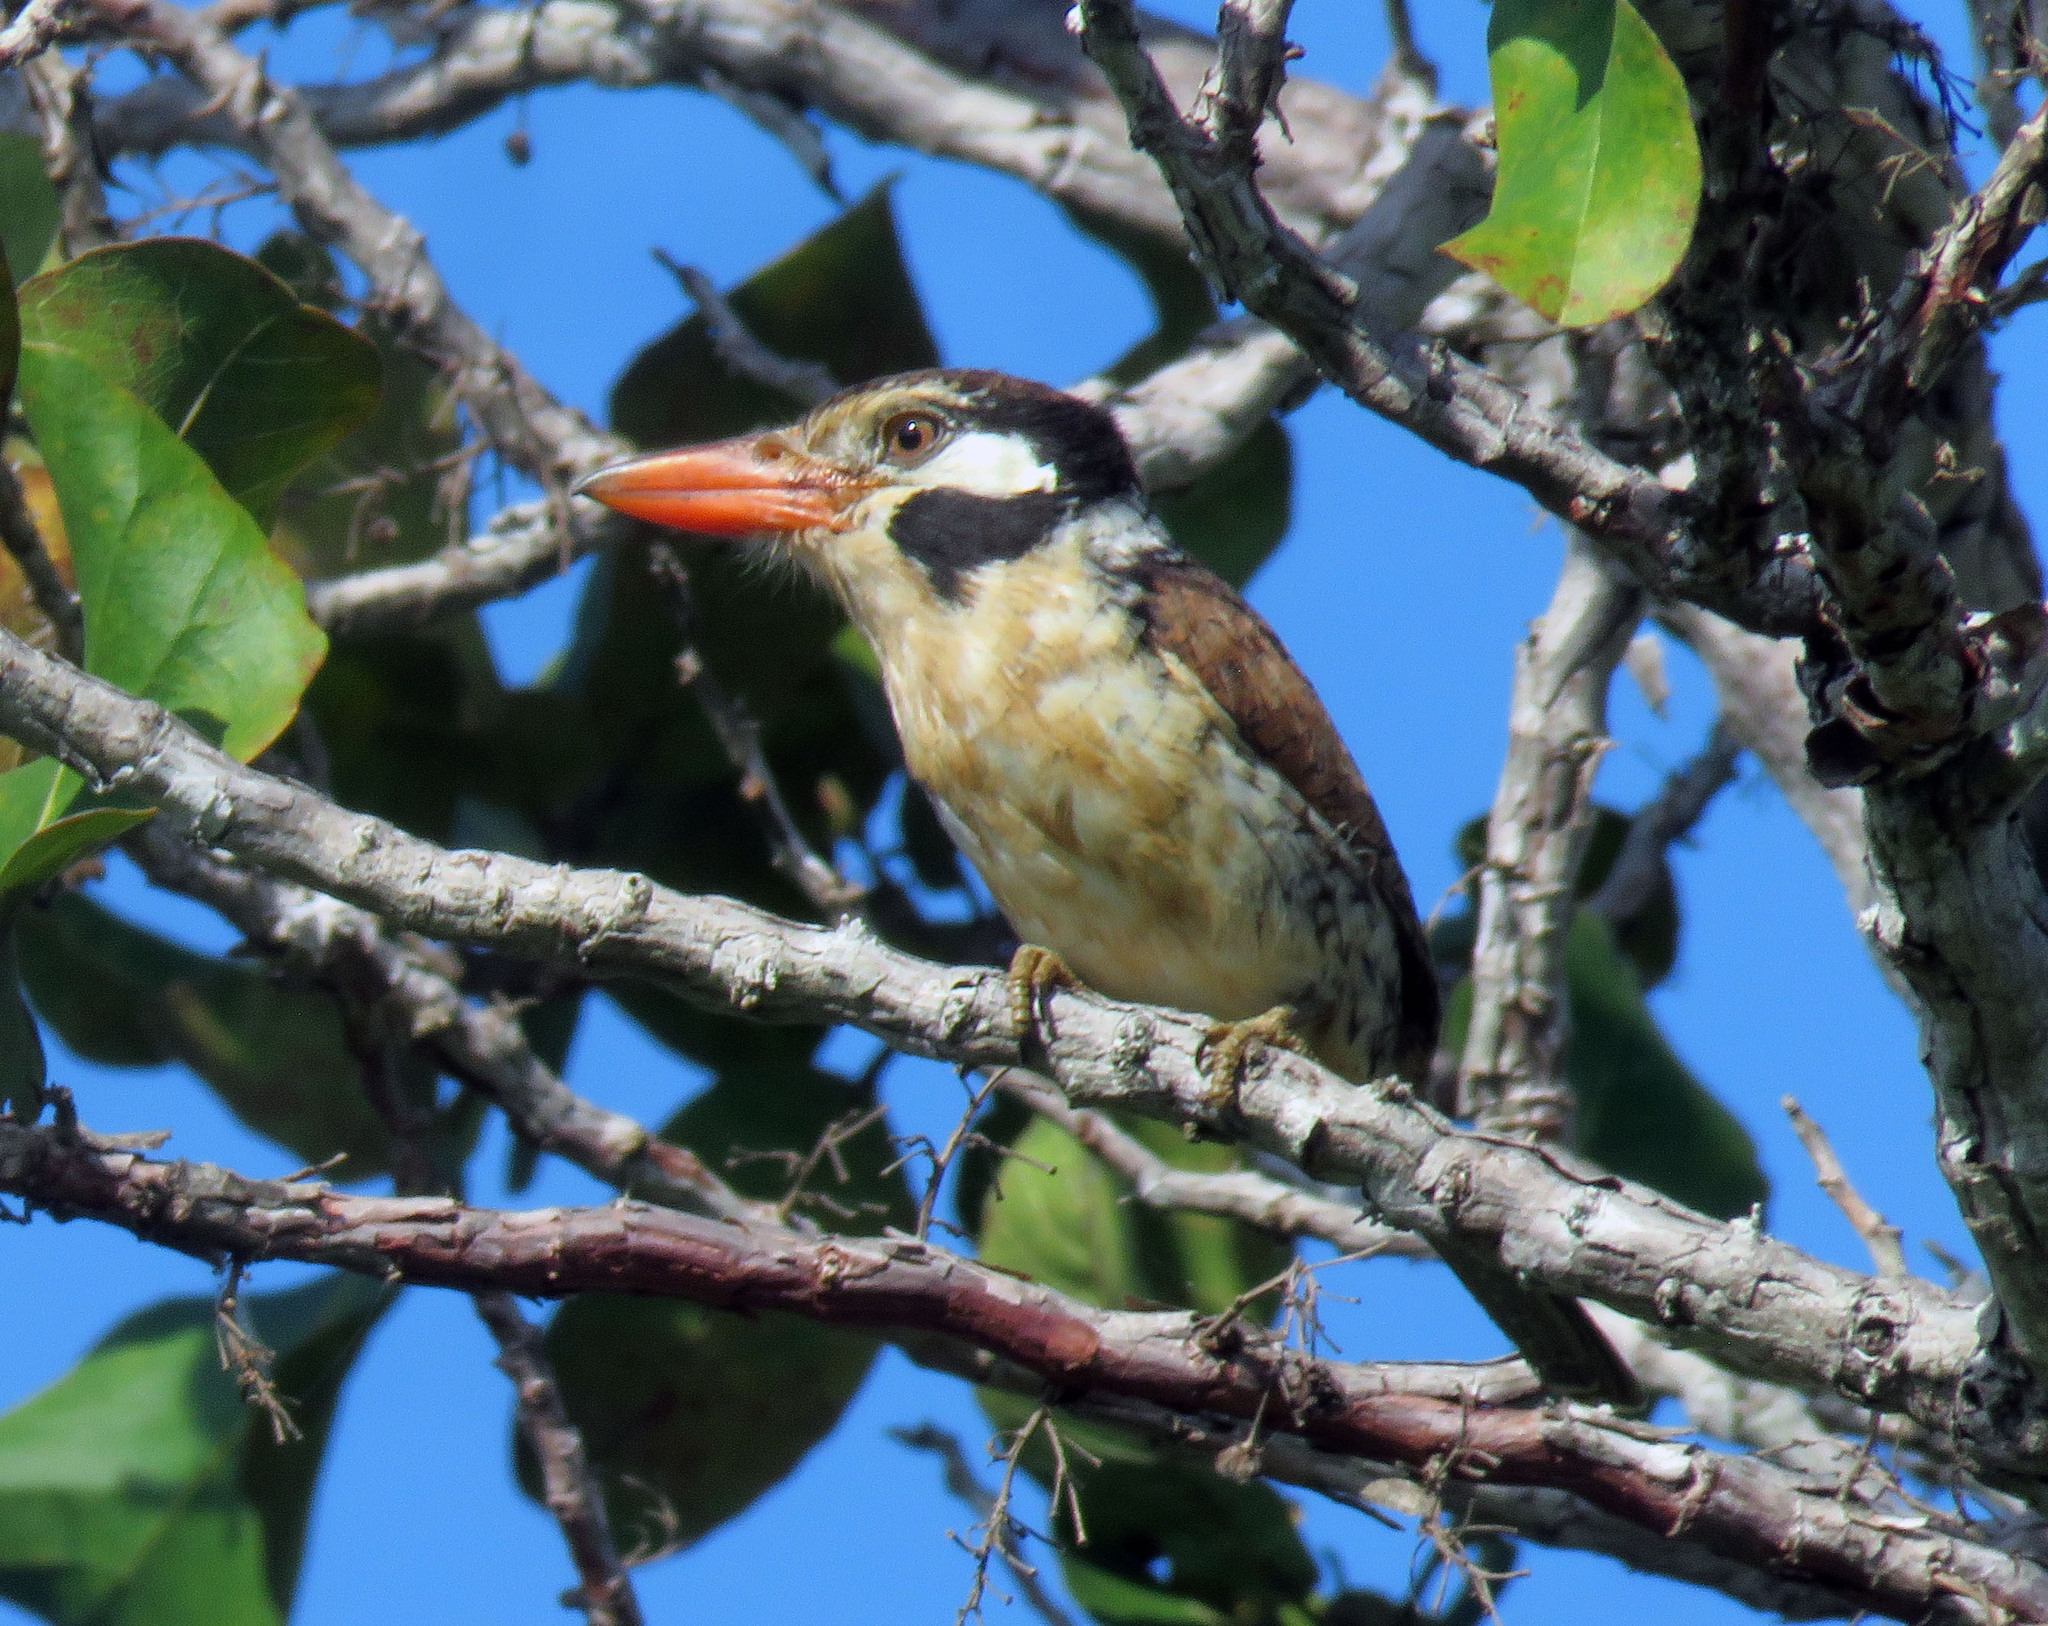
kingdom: Animalia
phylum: Chordata
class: Aves
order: Piciformes
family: Bucconidae
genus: Nystalus
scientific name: Nystalus chacuru
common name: White-eared puffbird
